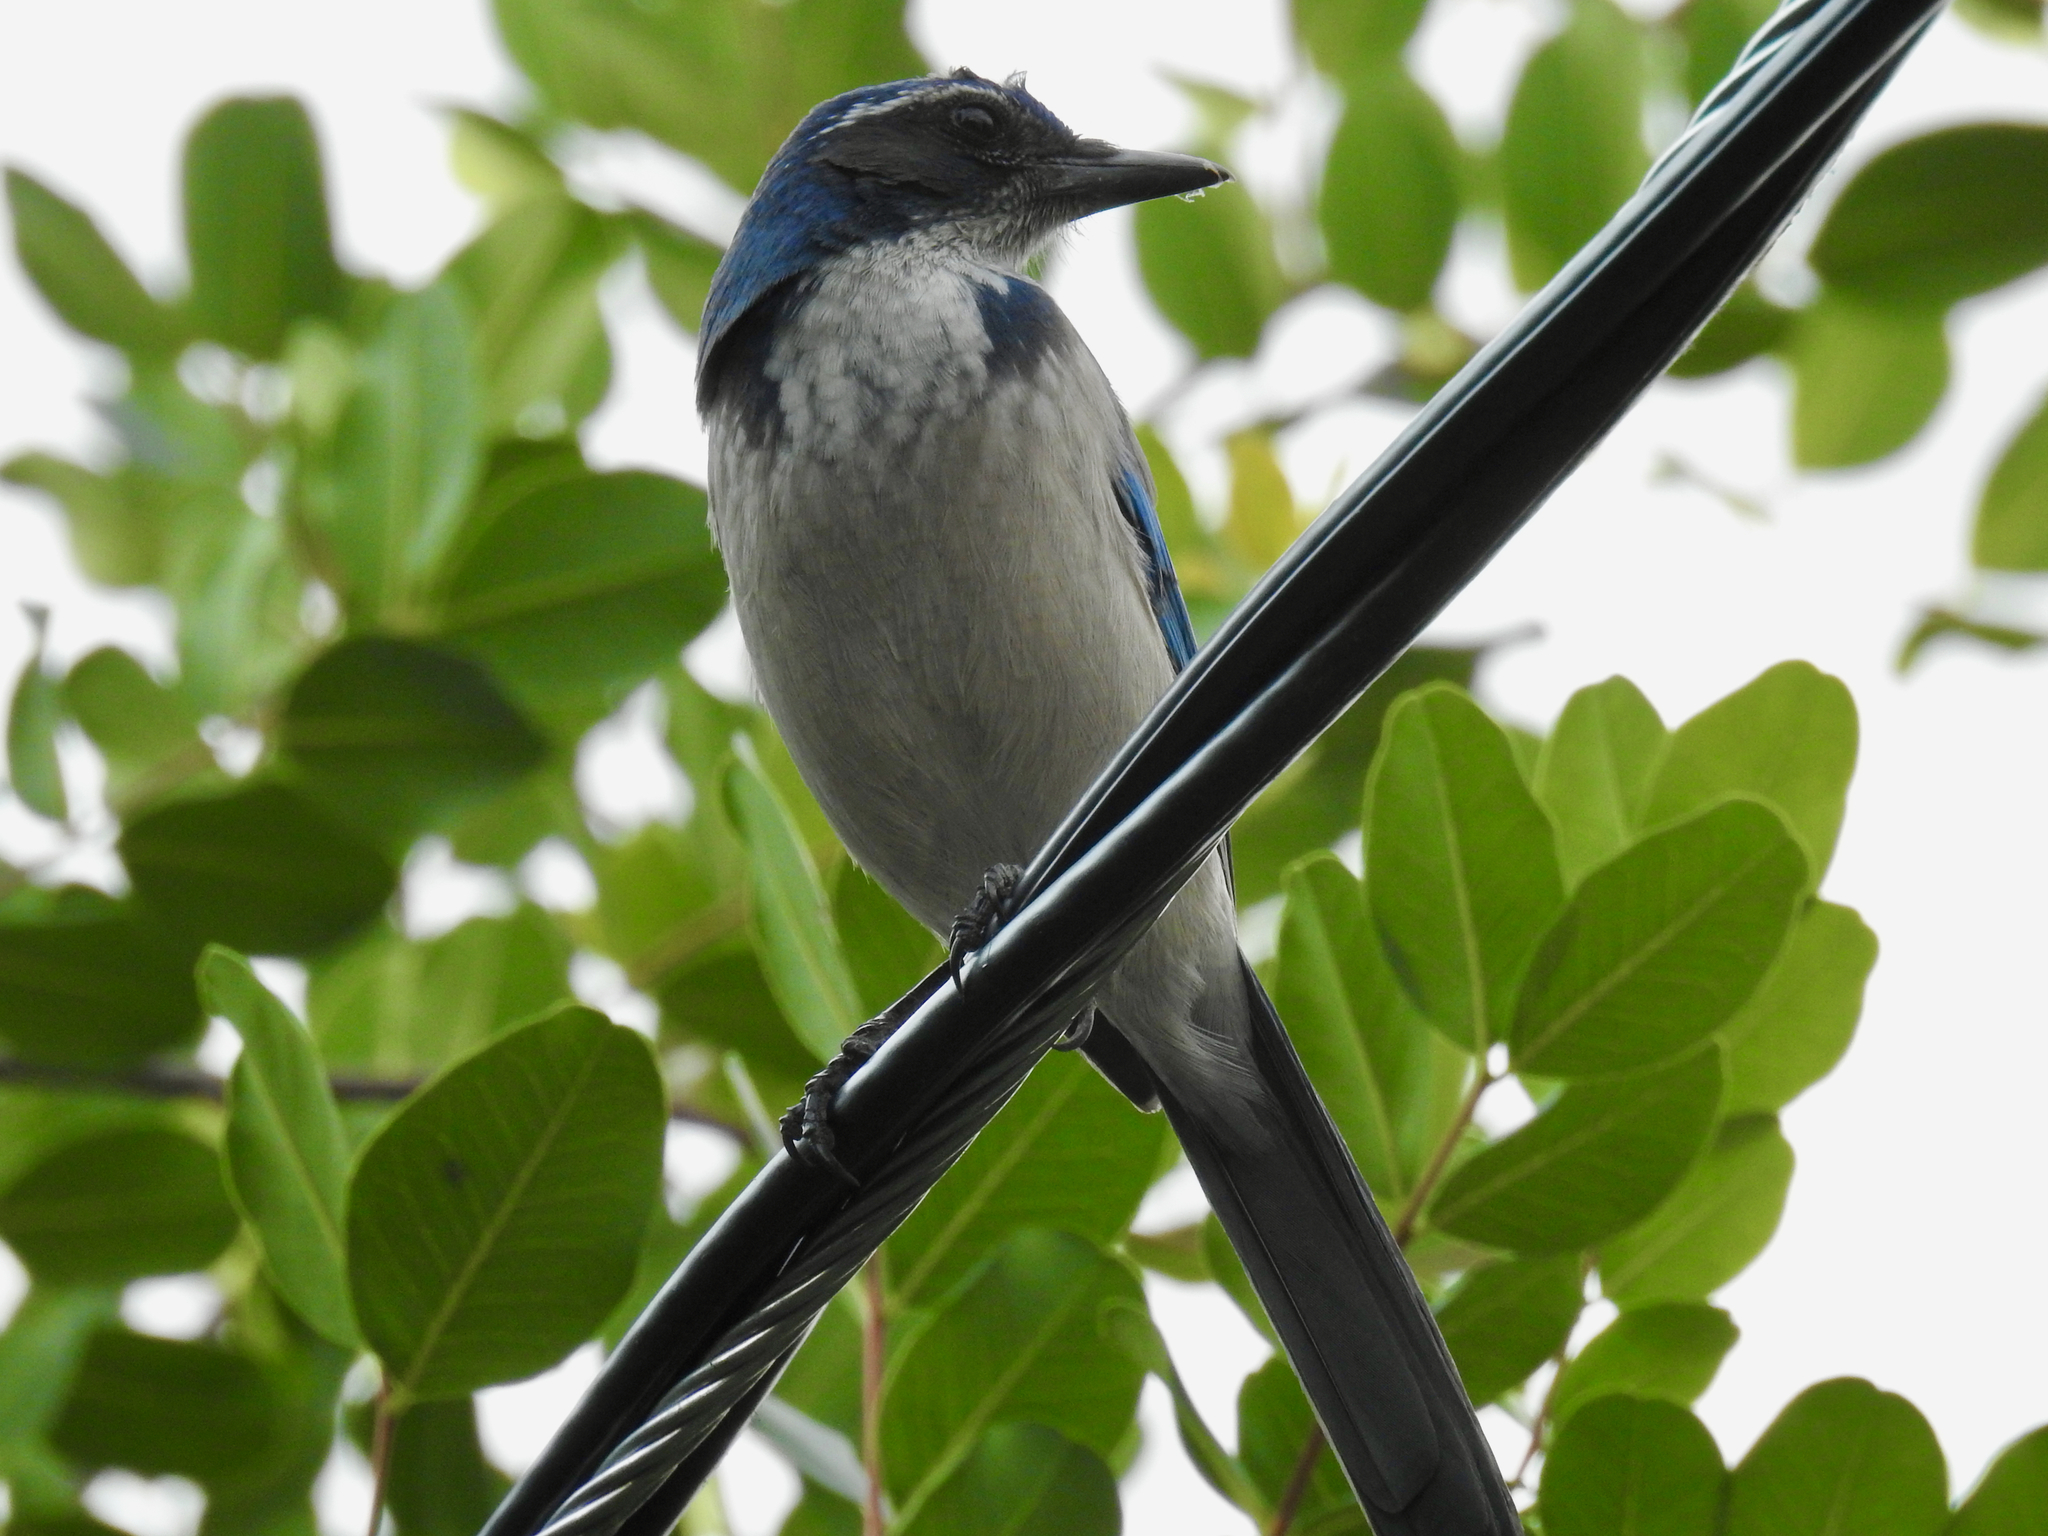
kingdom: Animalia
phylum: Chordata
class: Aves
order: Passeriformes
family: Corvidae
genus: Aphelocoma
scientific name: Aphelocoma californica
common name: California scrub-jay
